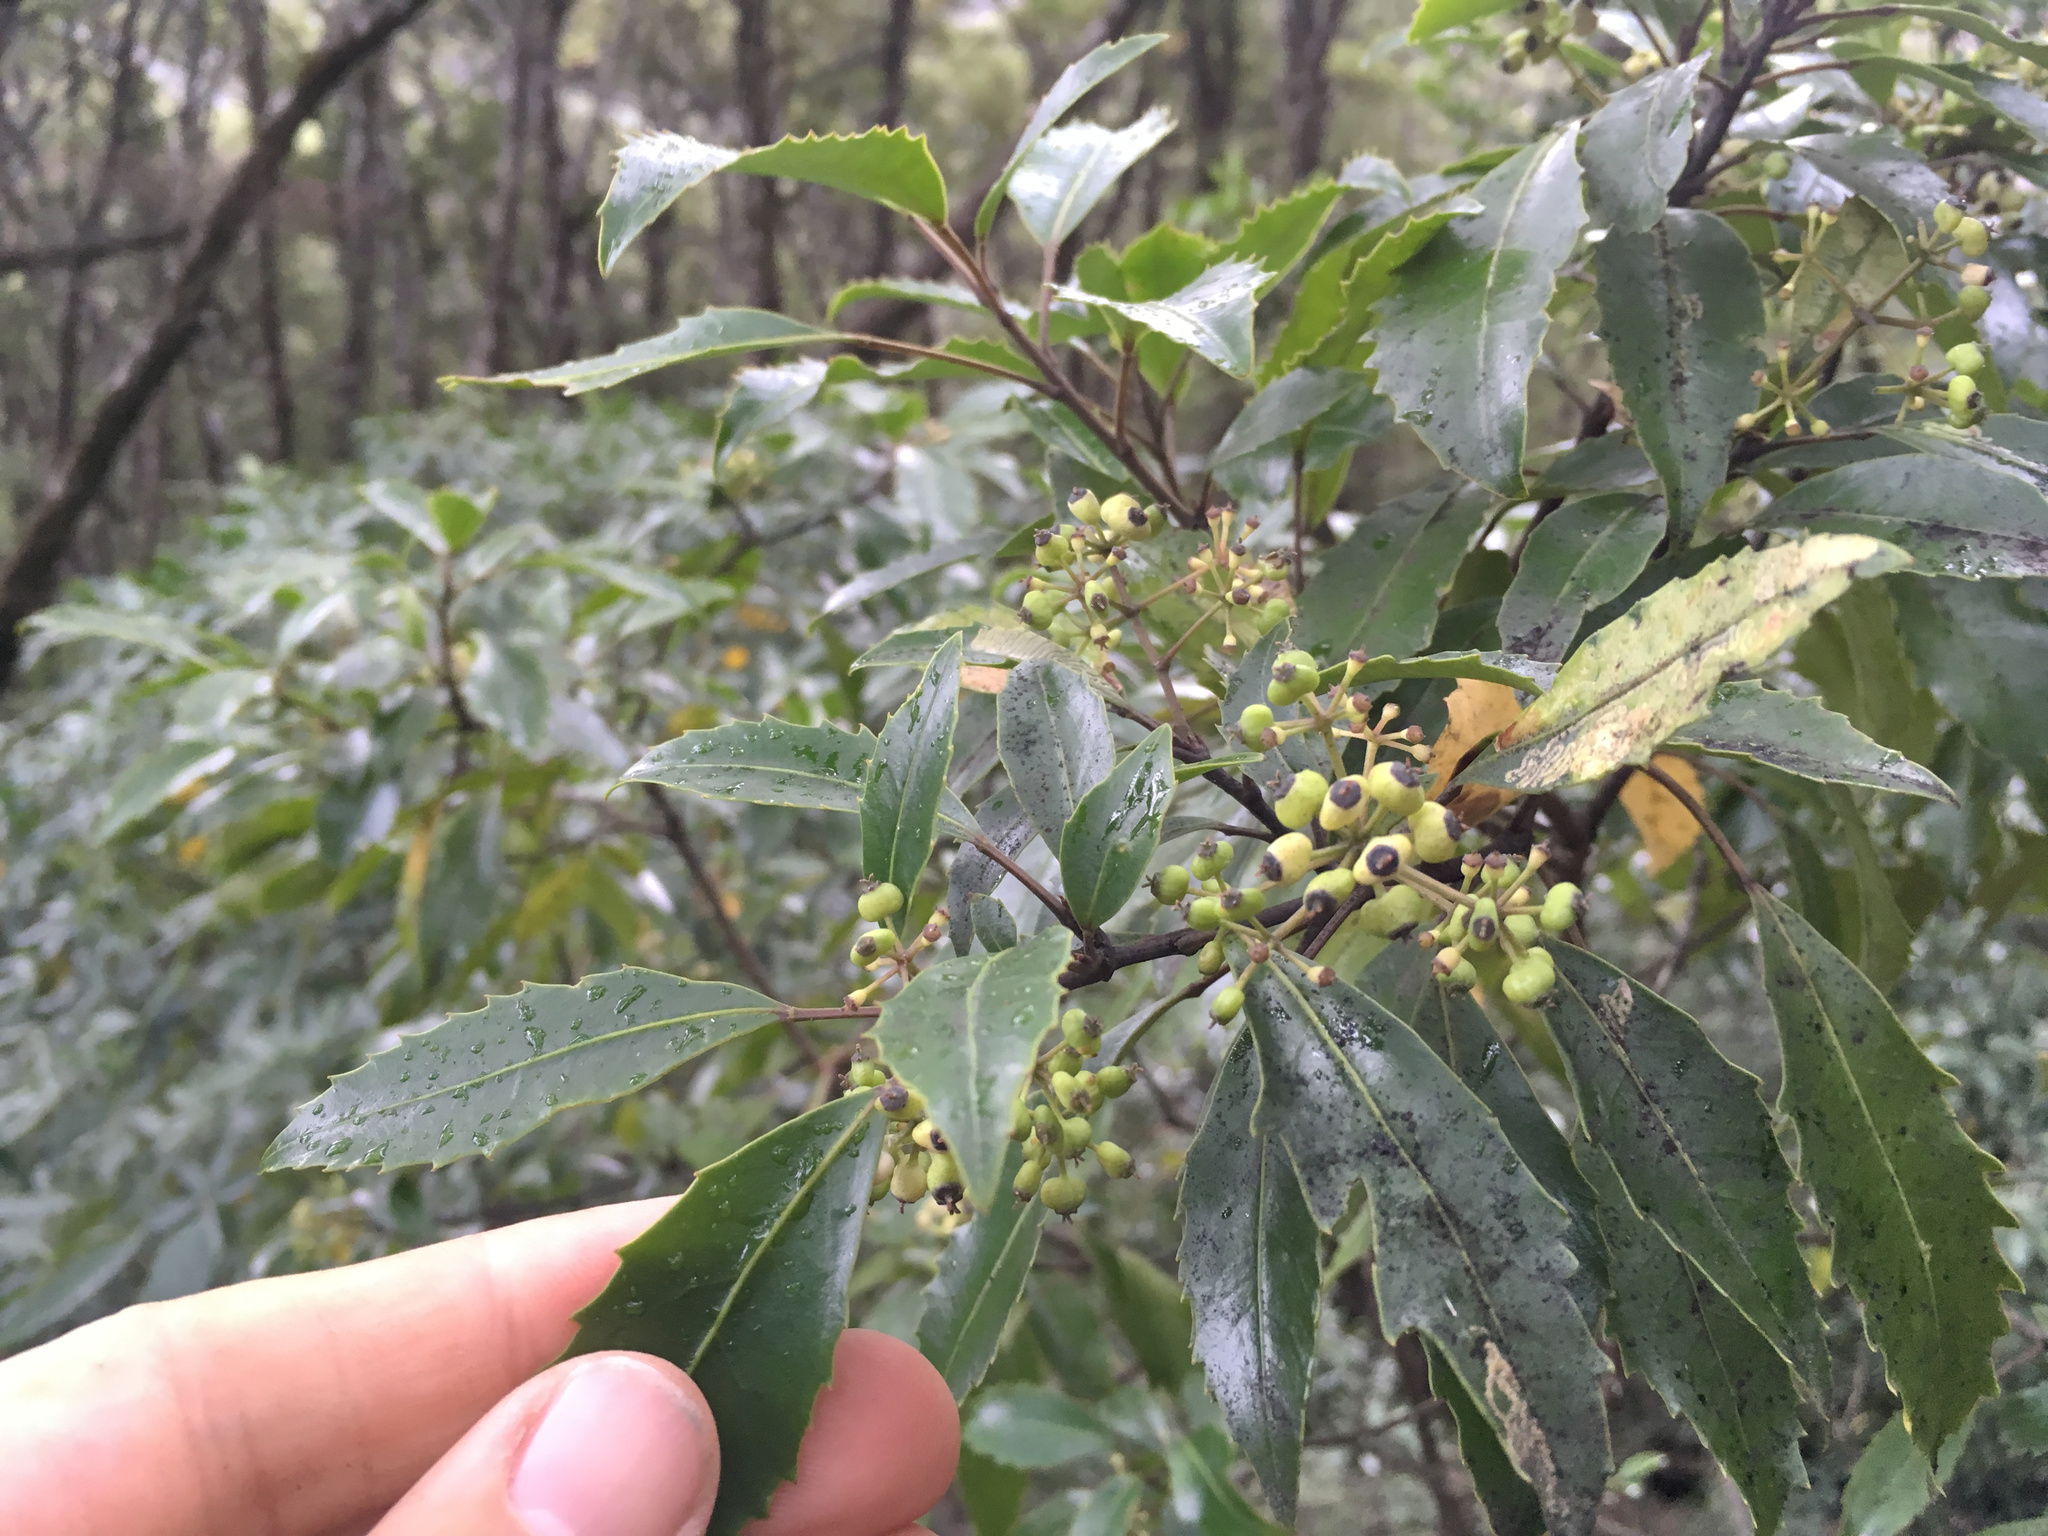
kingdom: Plantae
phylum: Tracheophyta
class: Magnoliopsida
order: Apiales
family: Araliaceae
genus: Raukaua
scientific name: Raukaua simplex
